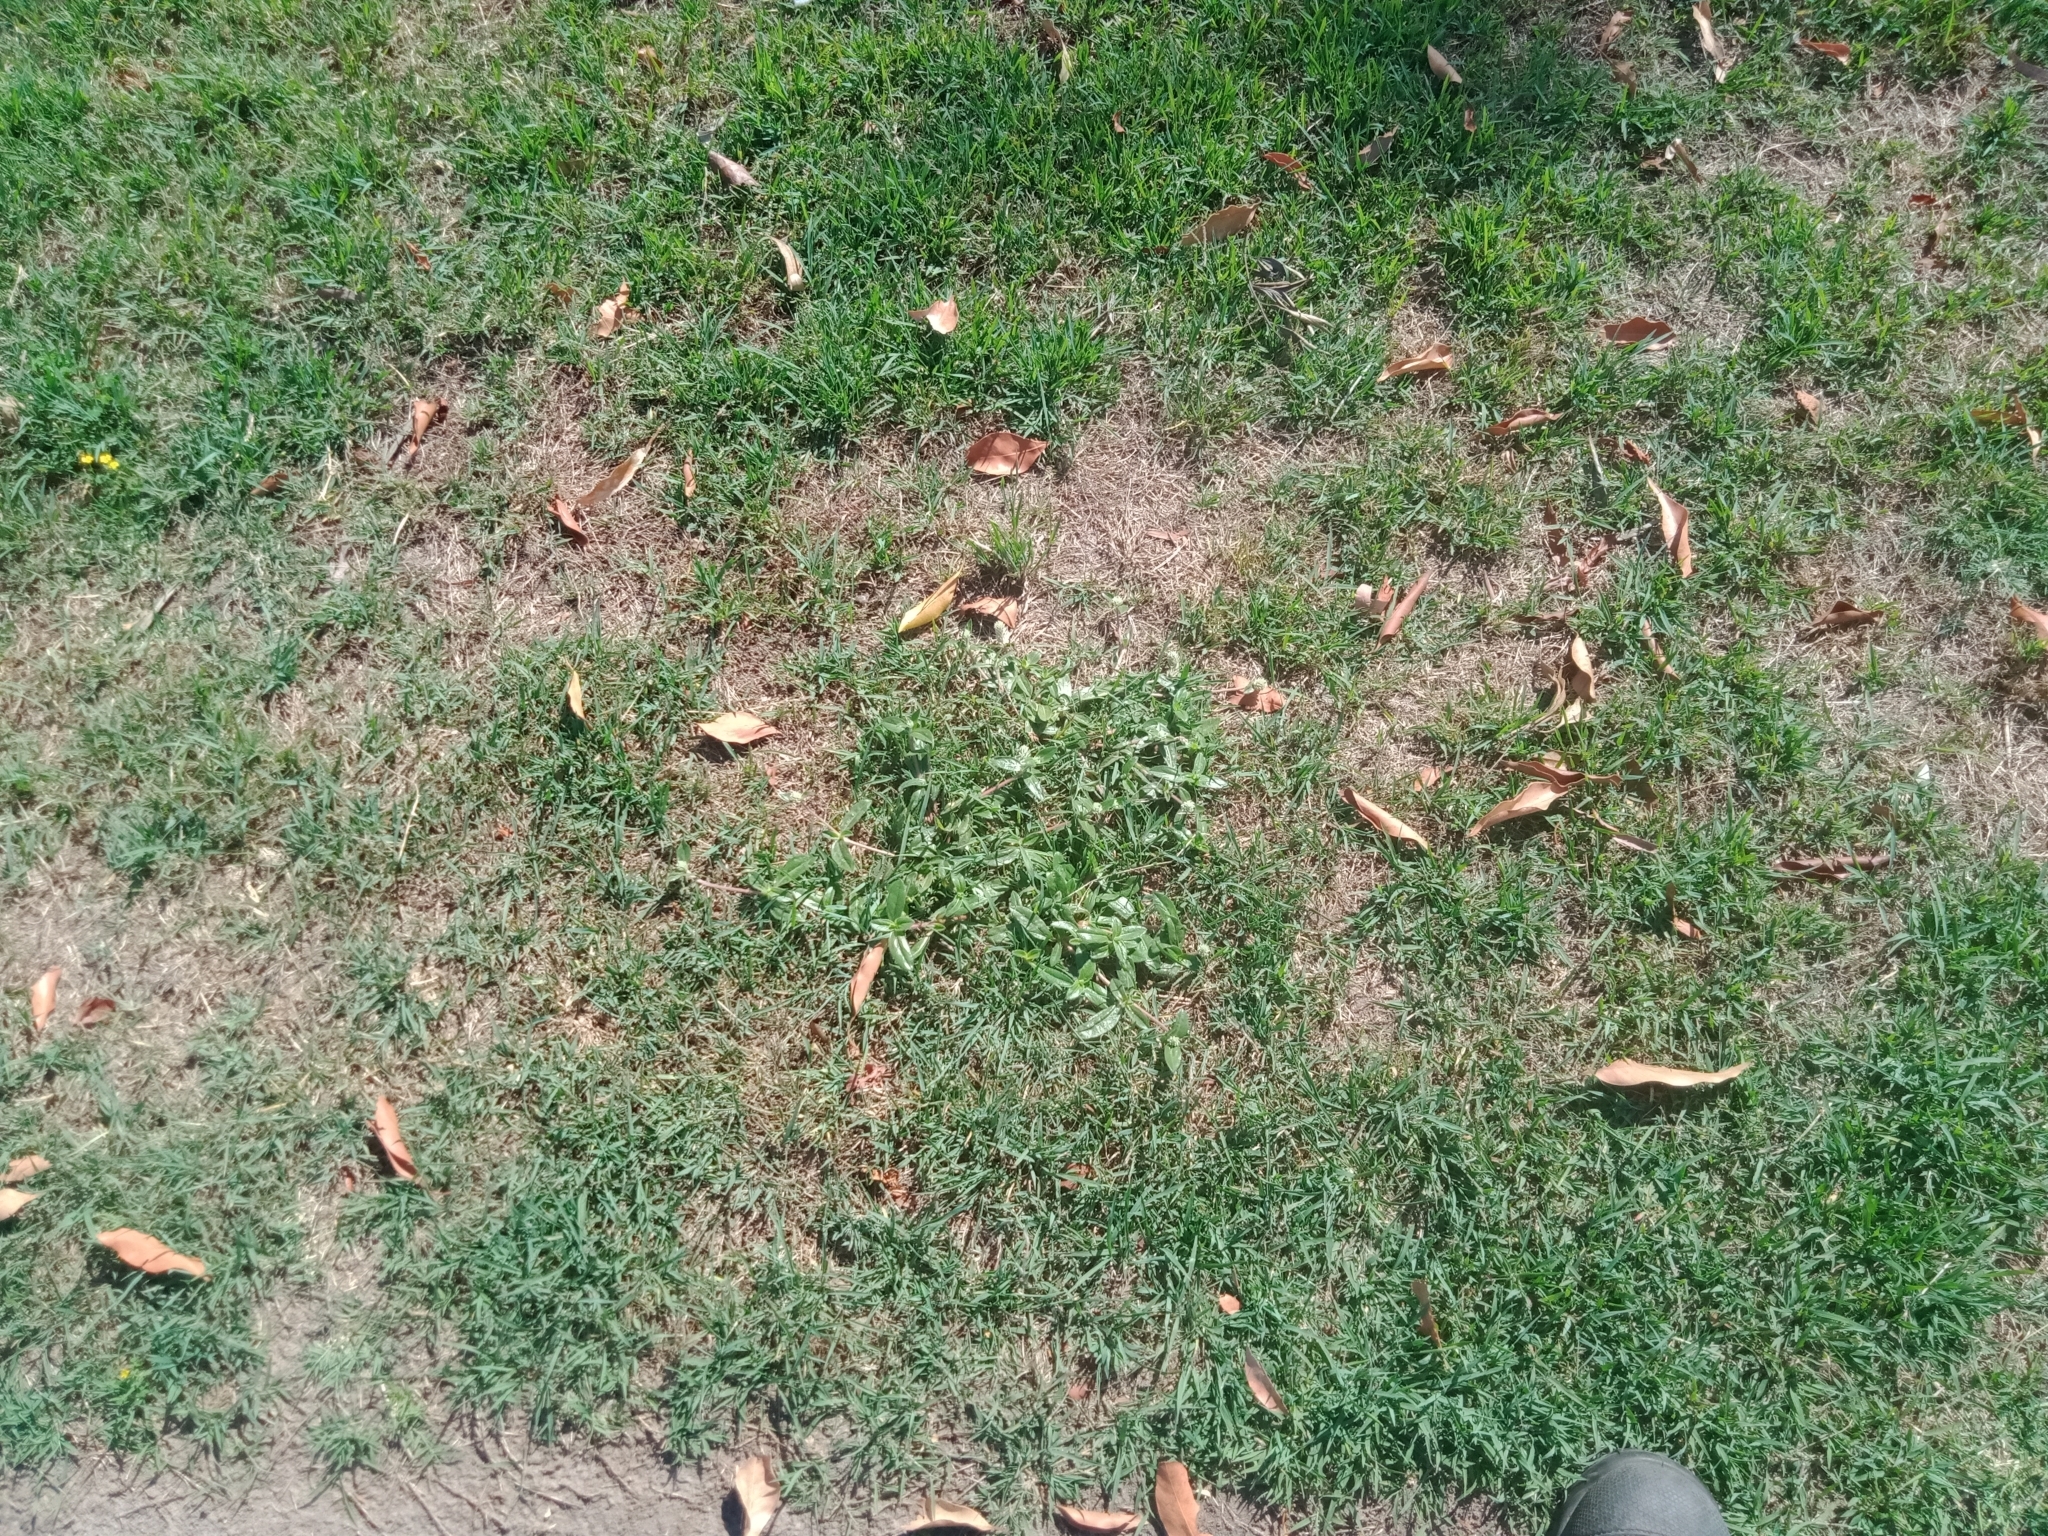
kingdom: Plantae
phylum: Tracheophyta
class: Magnoliopsida
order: Caryophyllales
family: Amaranthaceae
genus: Gomphrena
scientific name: Gomphrena celosioides
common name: Gomphrena-weed
